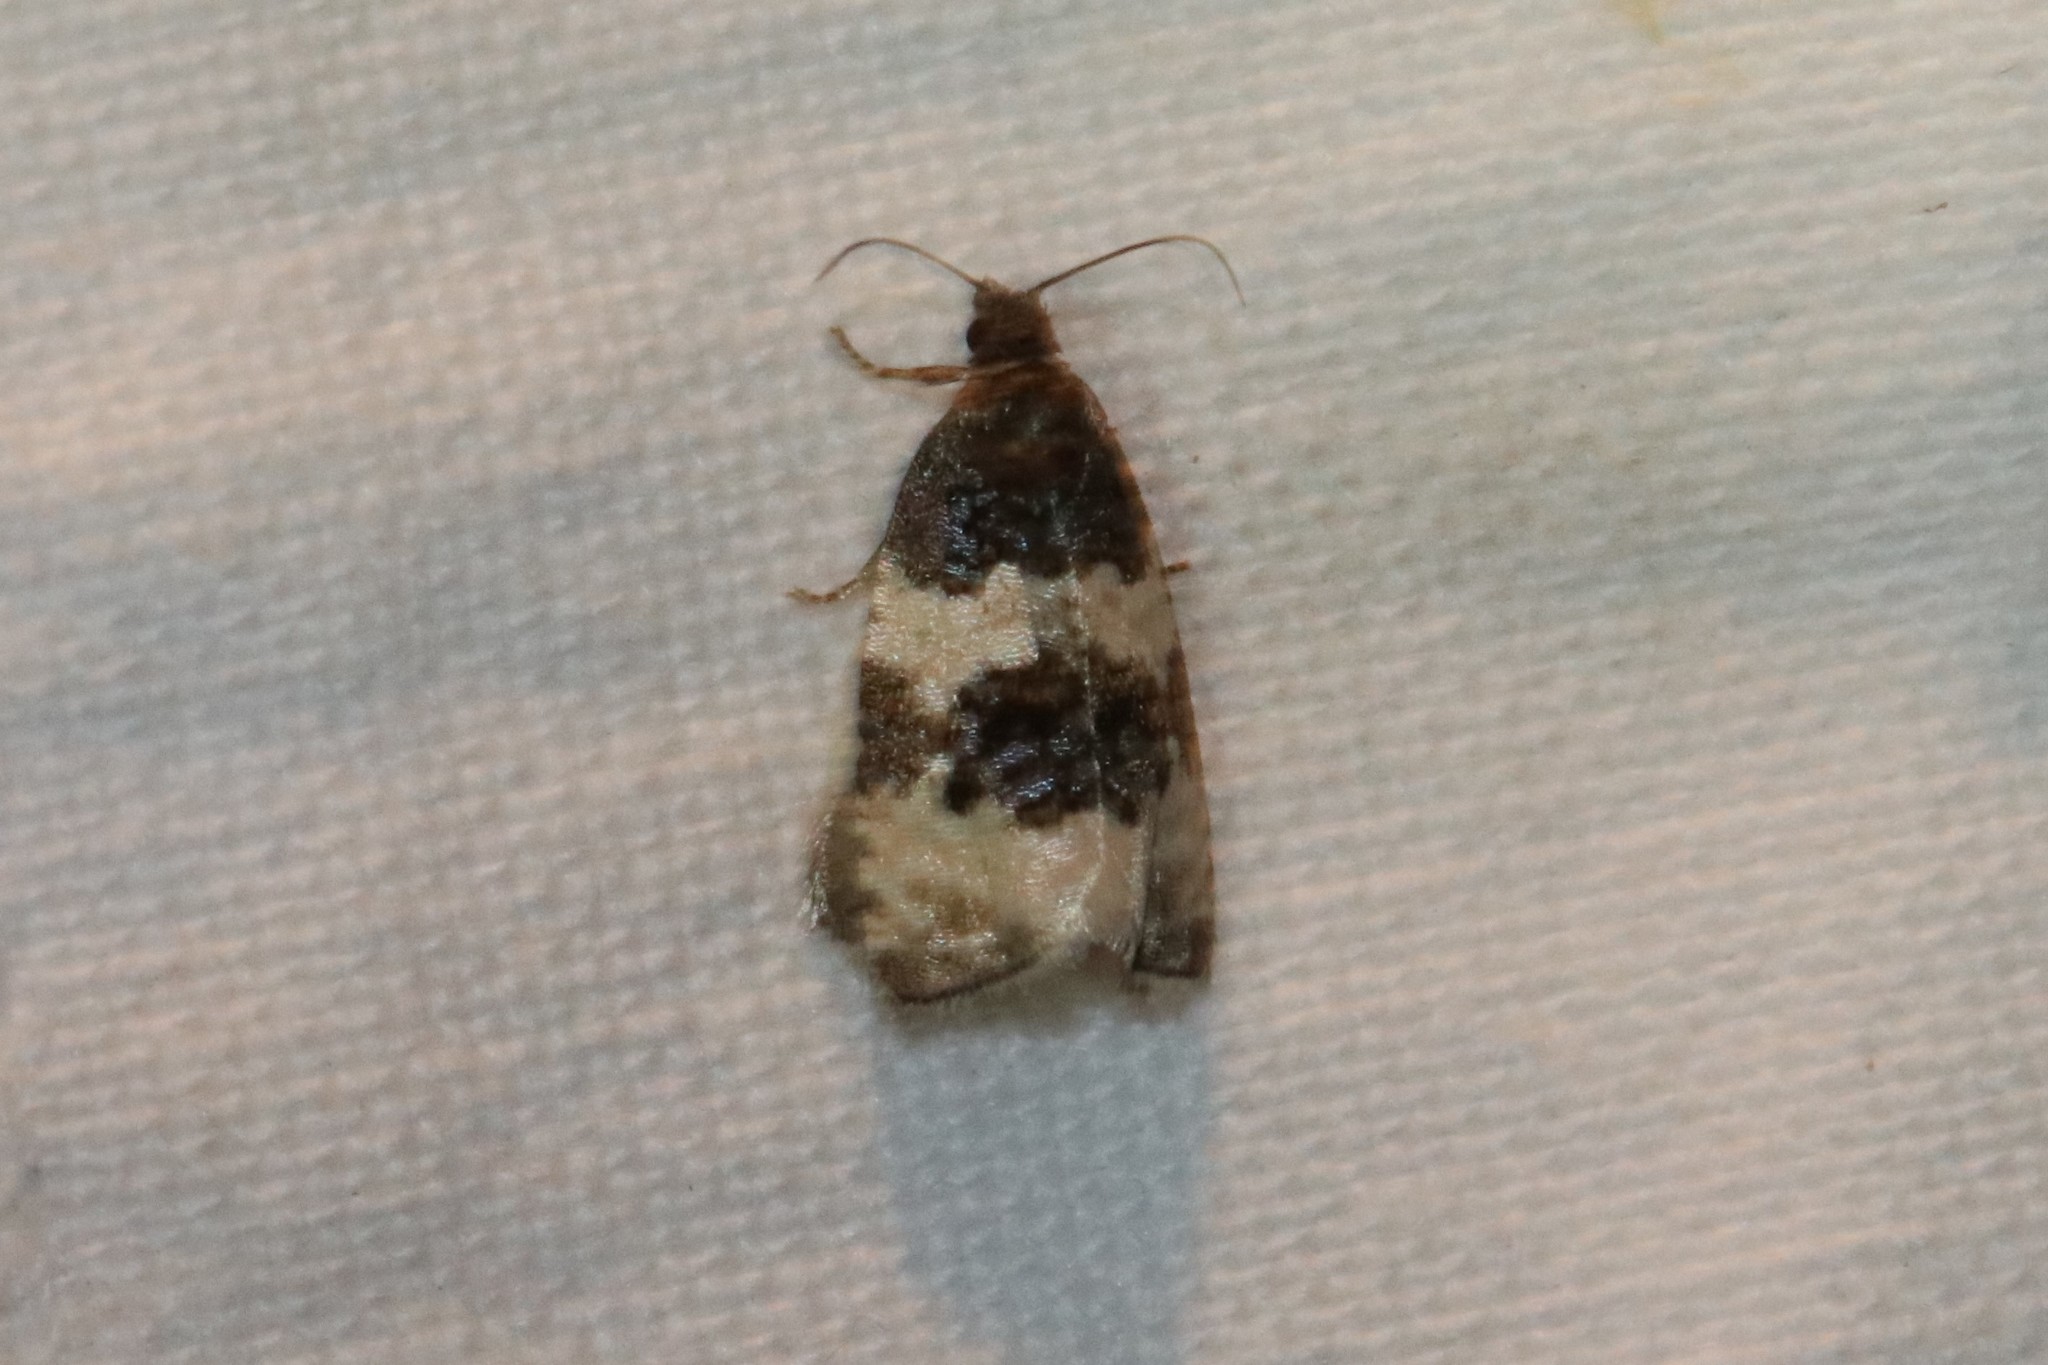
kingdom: Animalia
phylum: Arthropoda
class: Insecta
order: Lepidoptera
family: Tortricidae
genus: Olethreutes
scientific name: Olethreutes bipartitana
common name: Divided olethreutes moth
